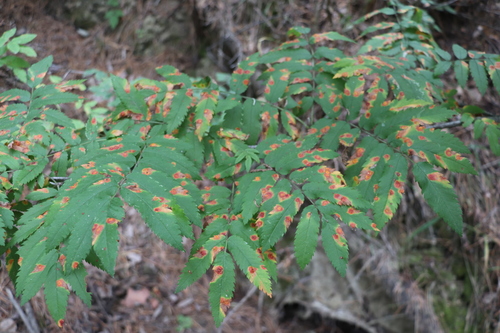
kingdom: Fungi
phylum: Basidiomycota
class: Pucciniomycetes
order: Pucciniales
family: Gymnosporangiaceae
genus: Gymnosporangium
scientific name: Gymnosporangium cornutum
